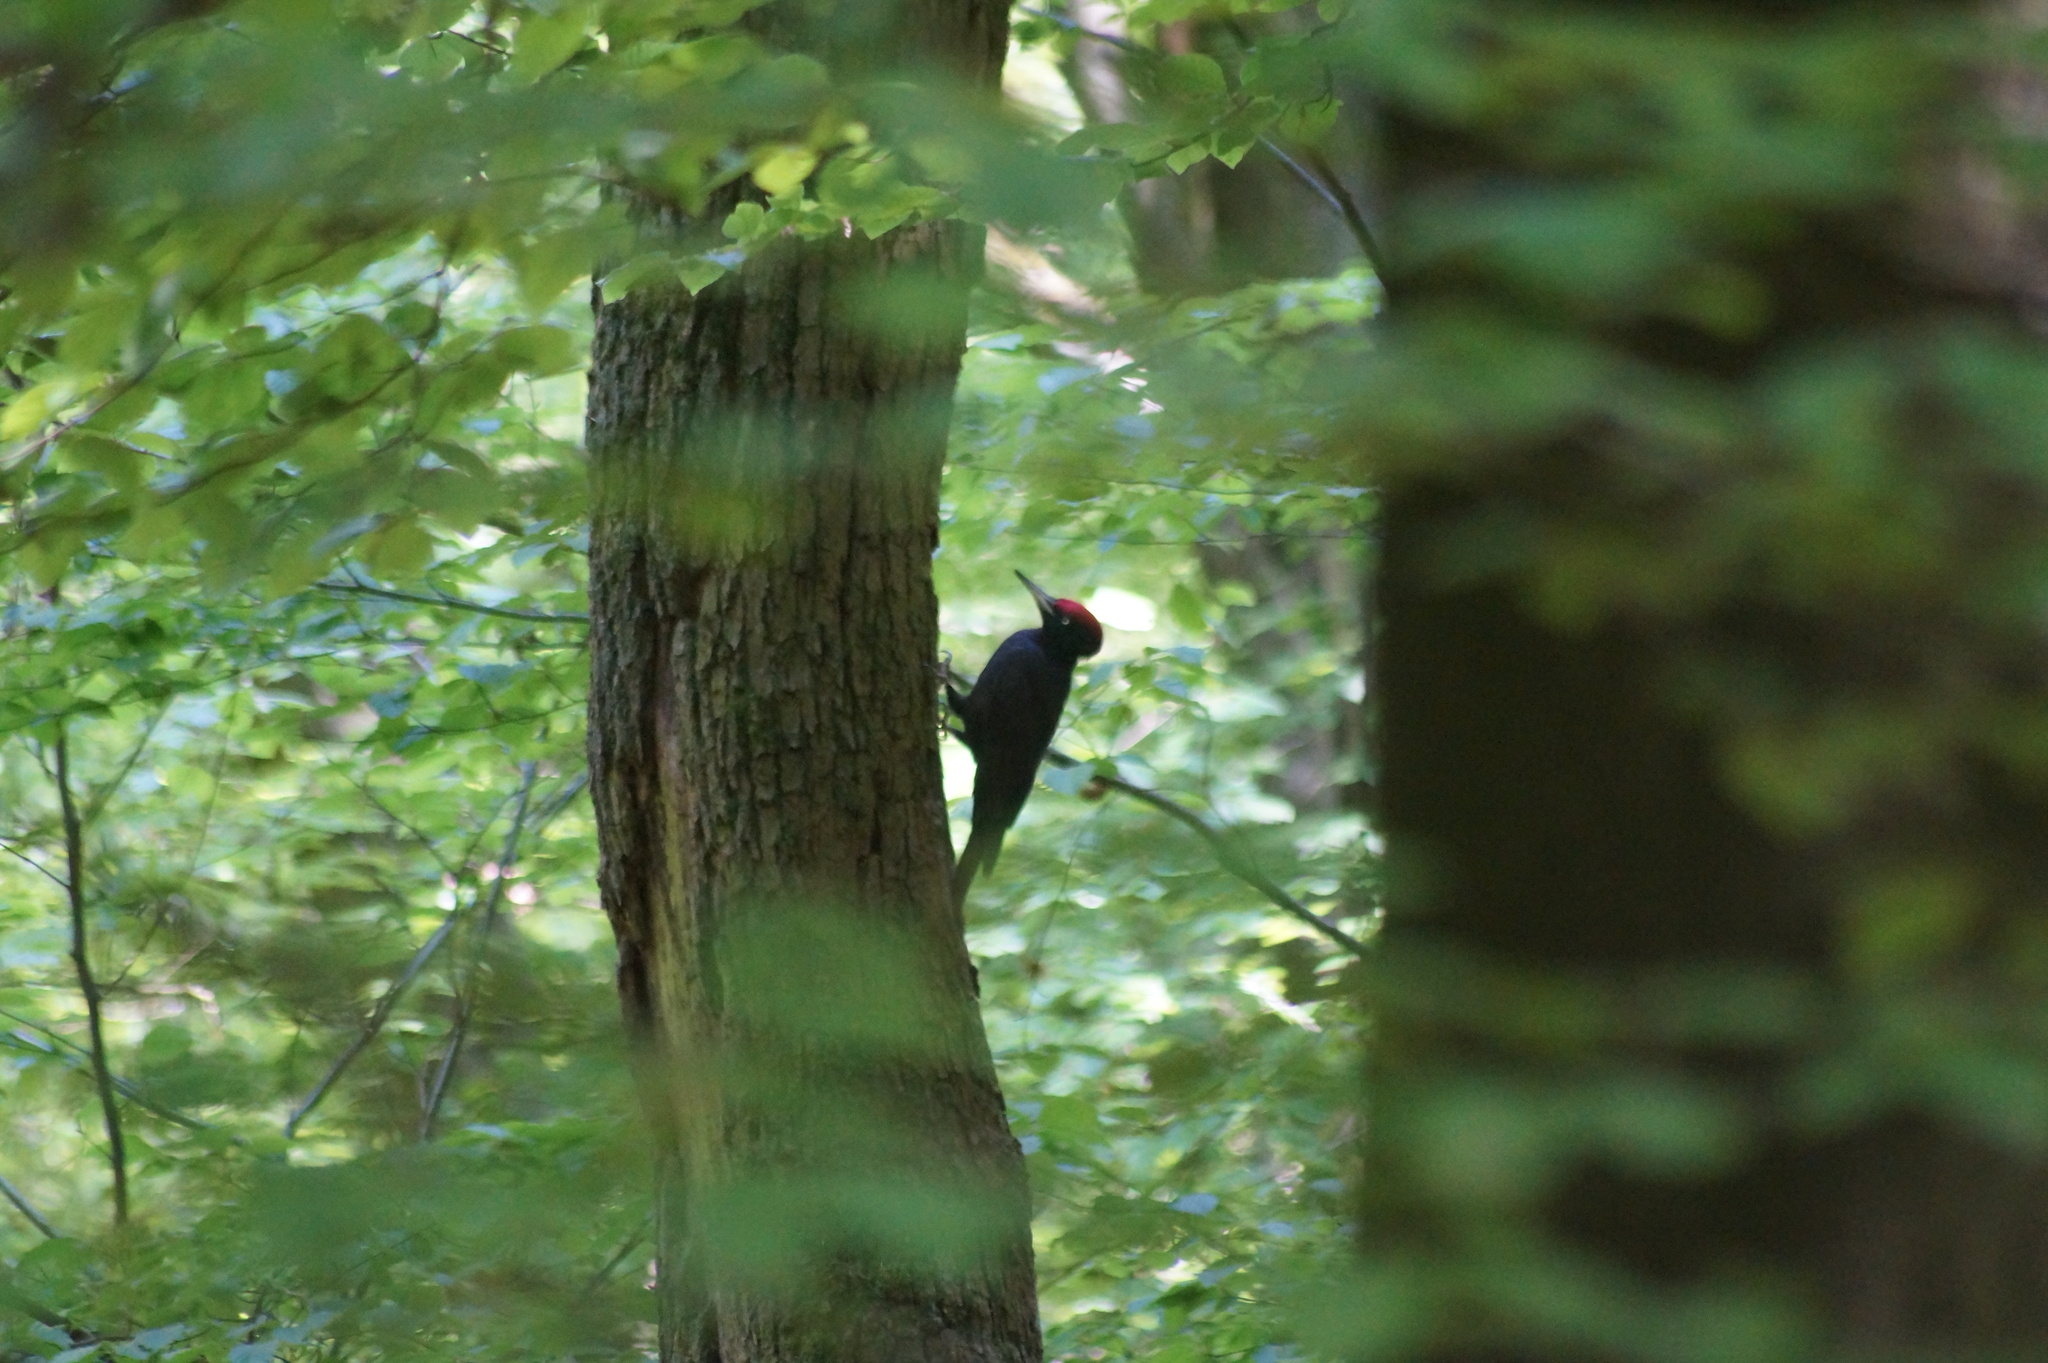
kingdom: Animalia
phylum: Chordata
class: Aves
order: Piciformes
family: Picidae
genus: Dryocopus
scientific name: Dryocopus martius
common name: Black woodpecker
